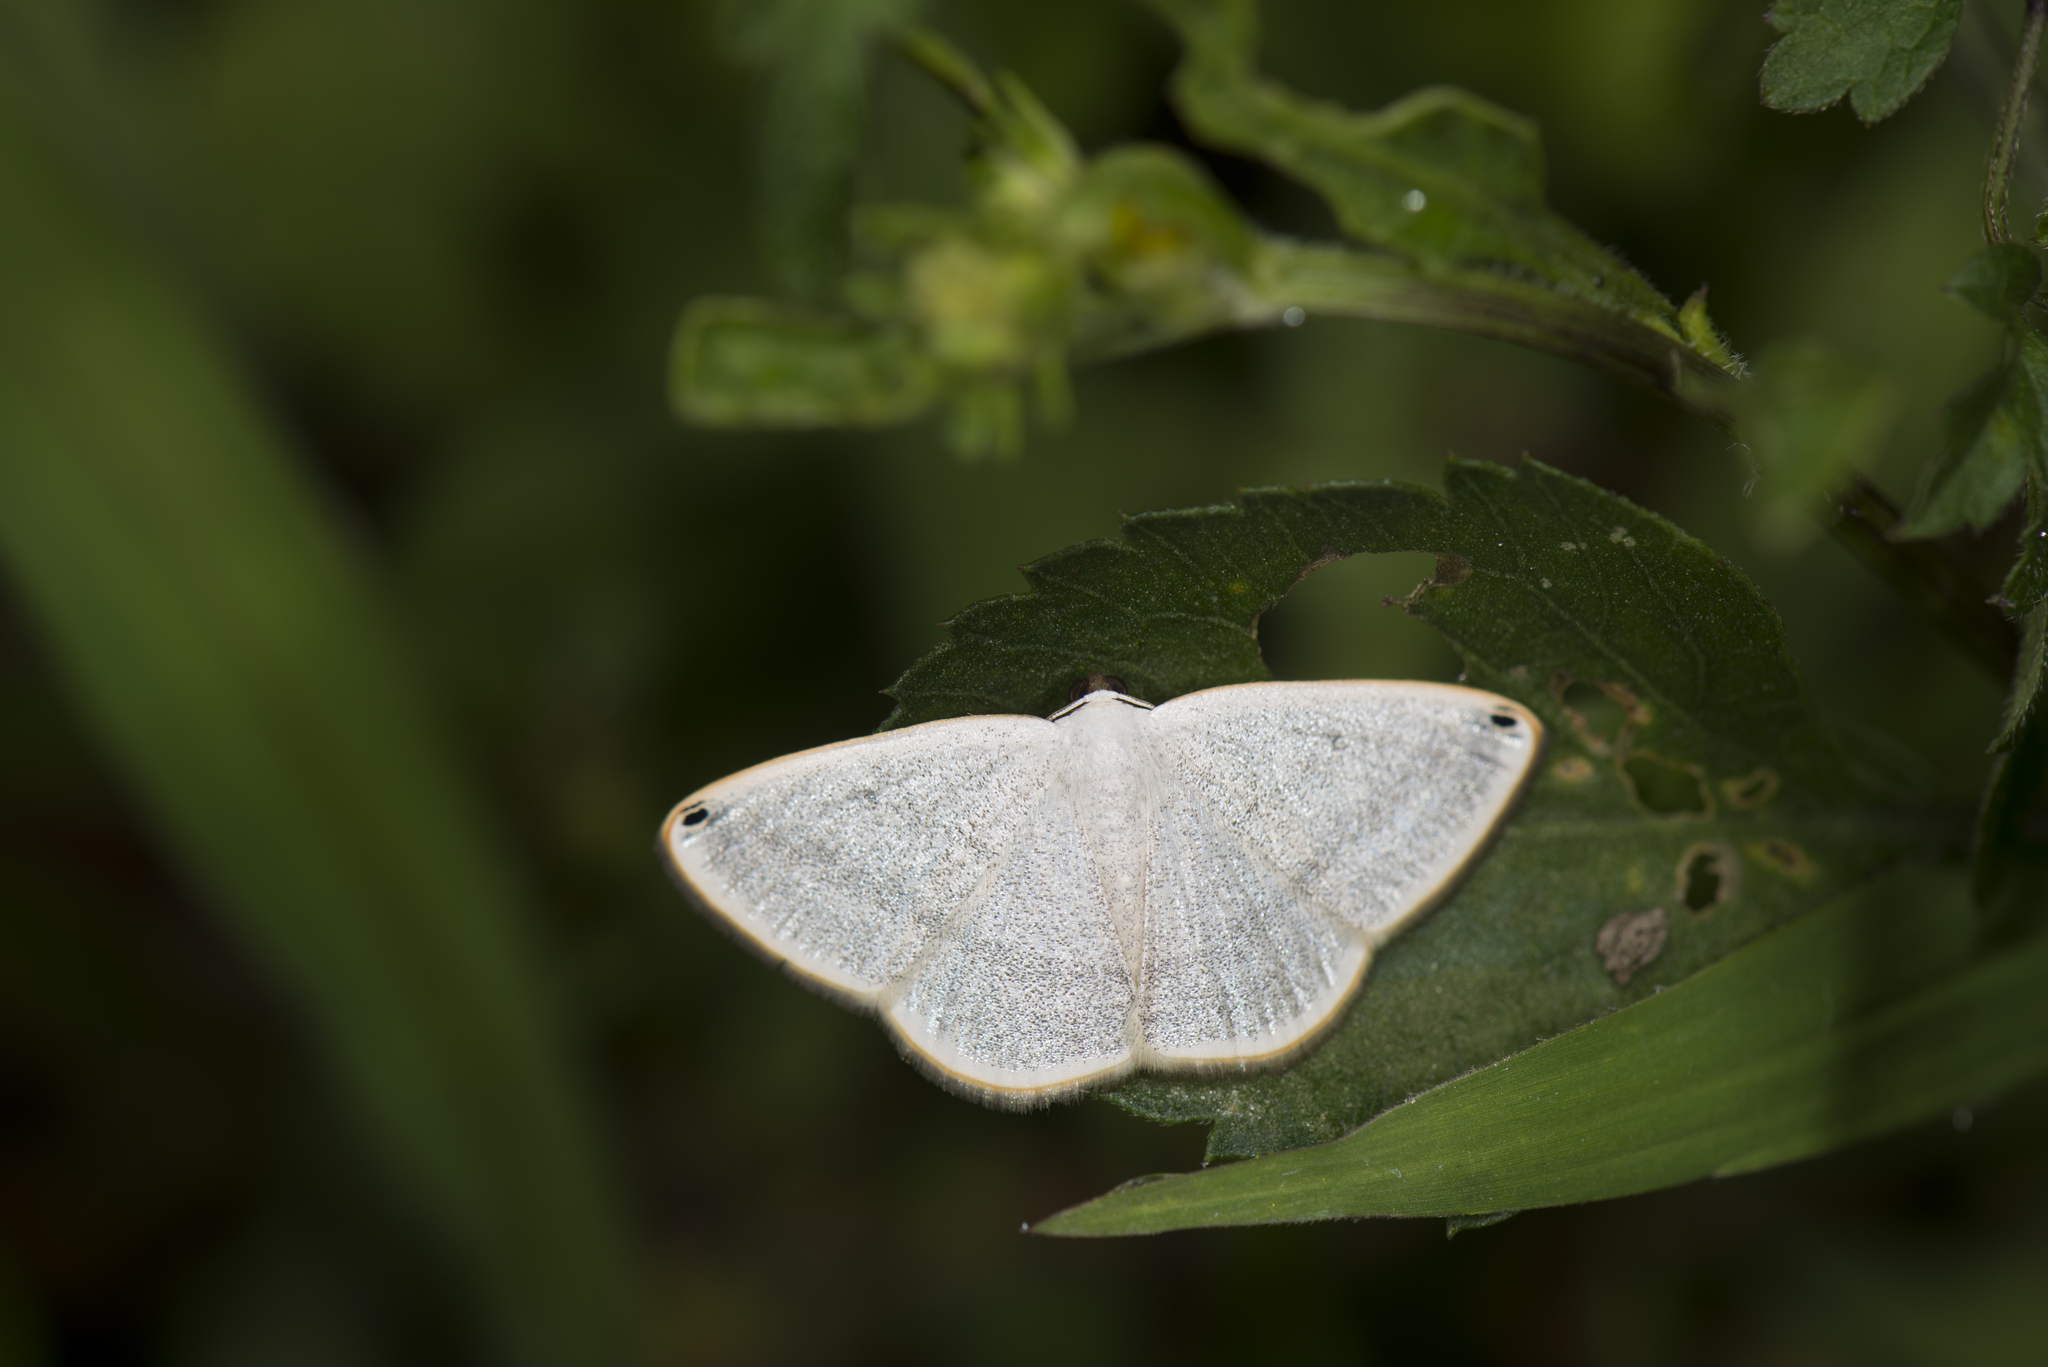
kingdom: Animalia
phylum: Arthropoda
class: Insecta
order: Lepidoptera
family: Geometridae
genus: Lomographa
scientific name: Lomographa percnosticta
